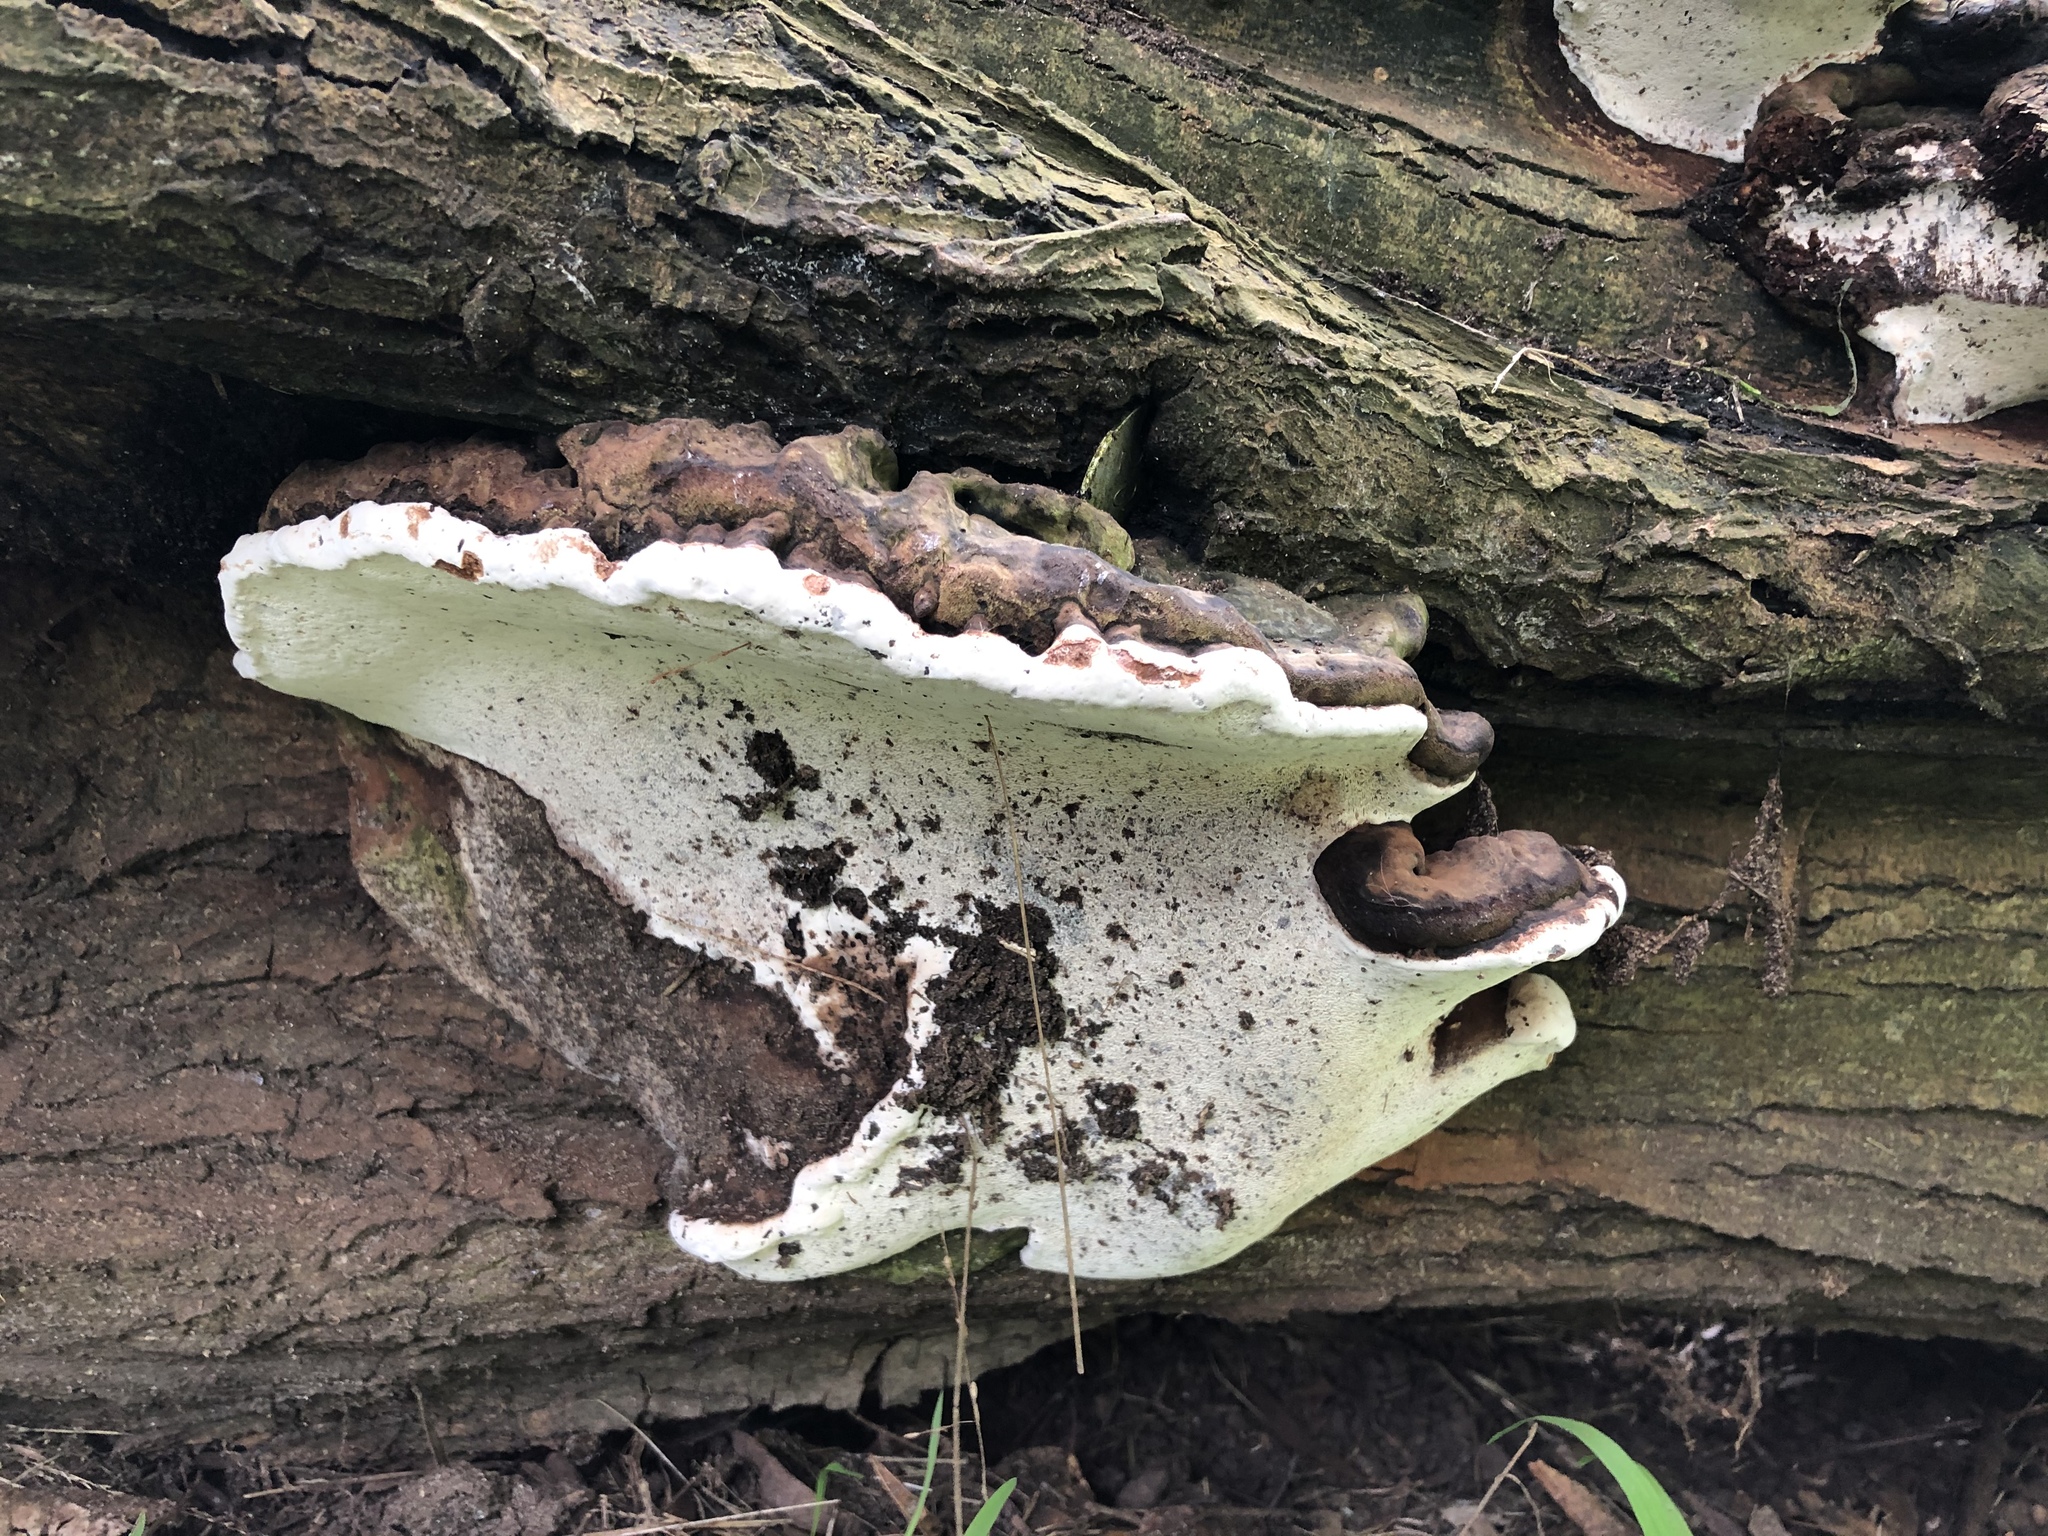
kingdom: Fungi
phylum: Basidiomycota
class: Agaricomycetes
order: Polyporales
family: Polyporaceae
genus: Ganoderma
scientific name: Ganoderma brownii
